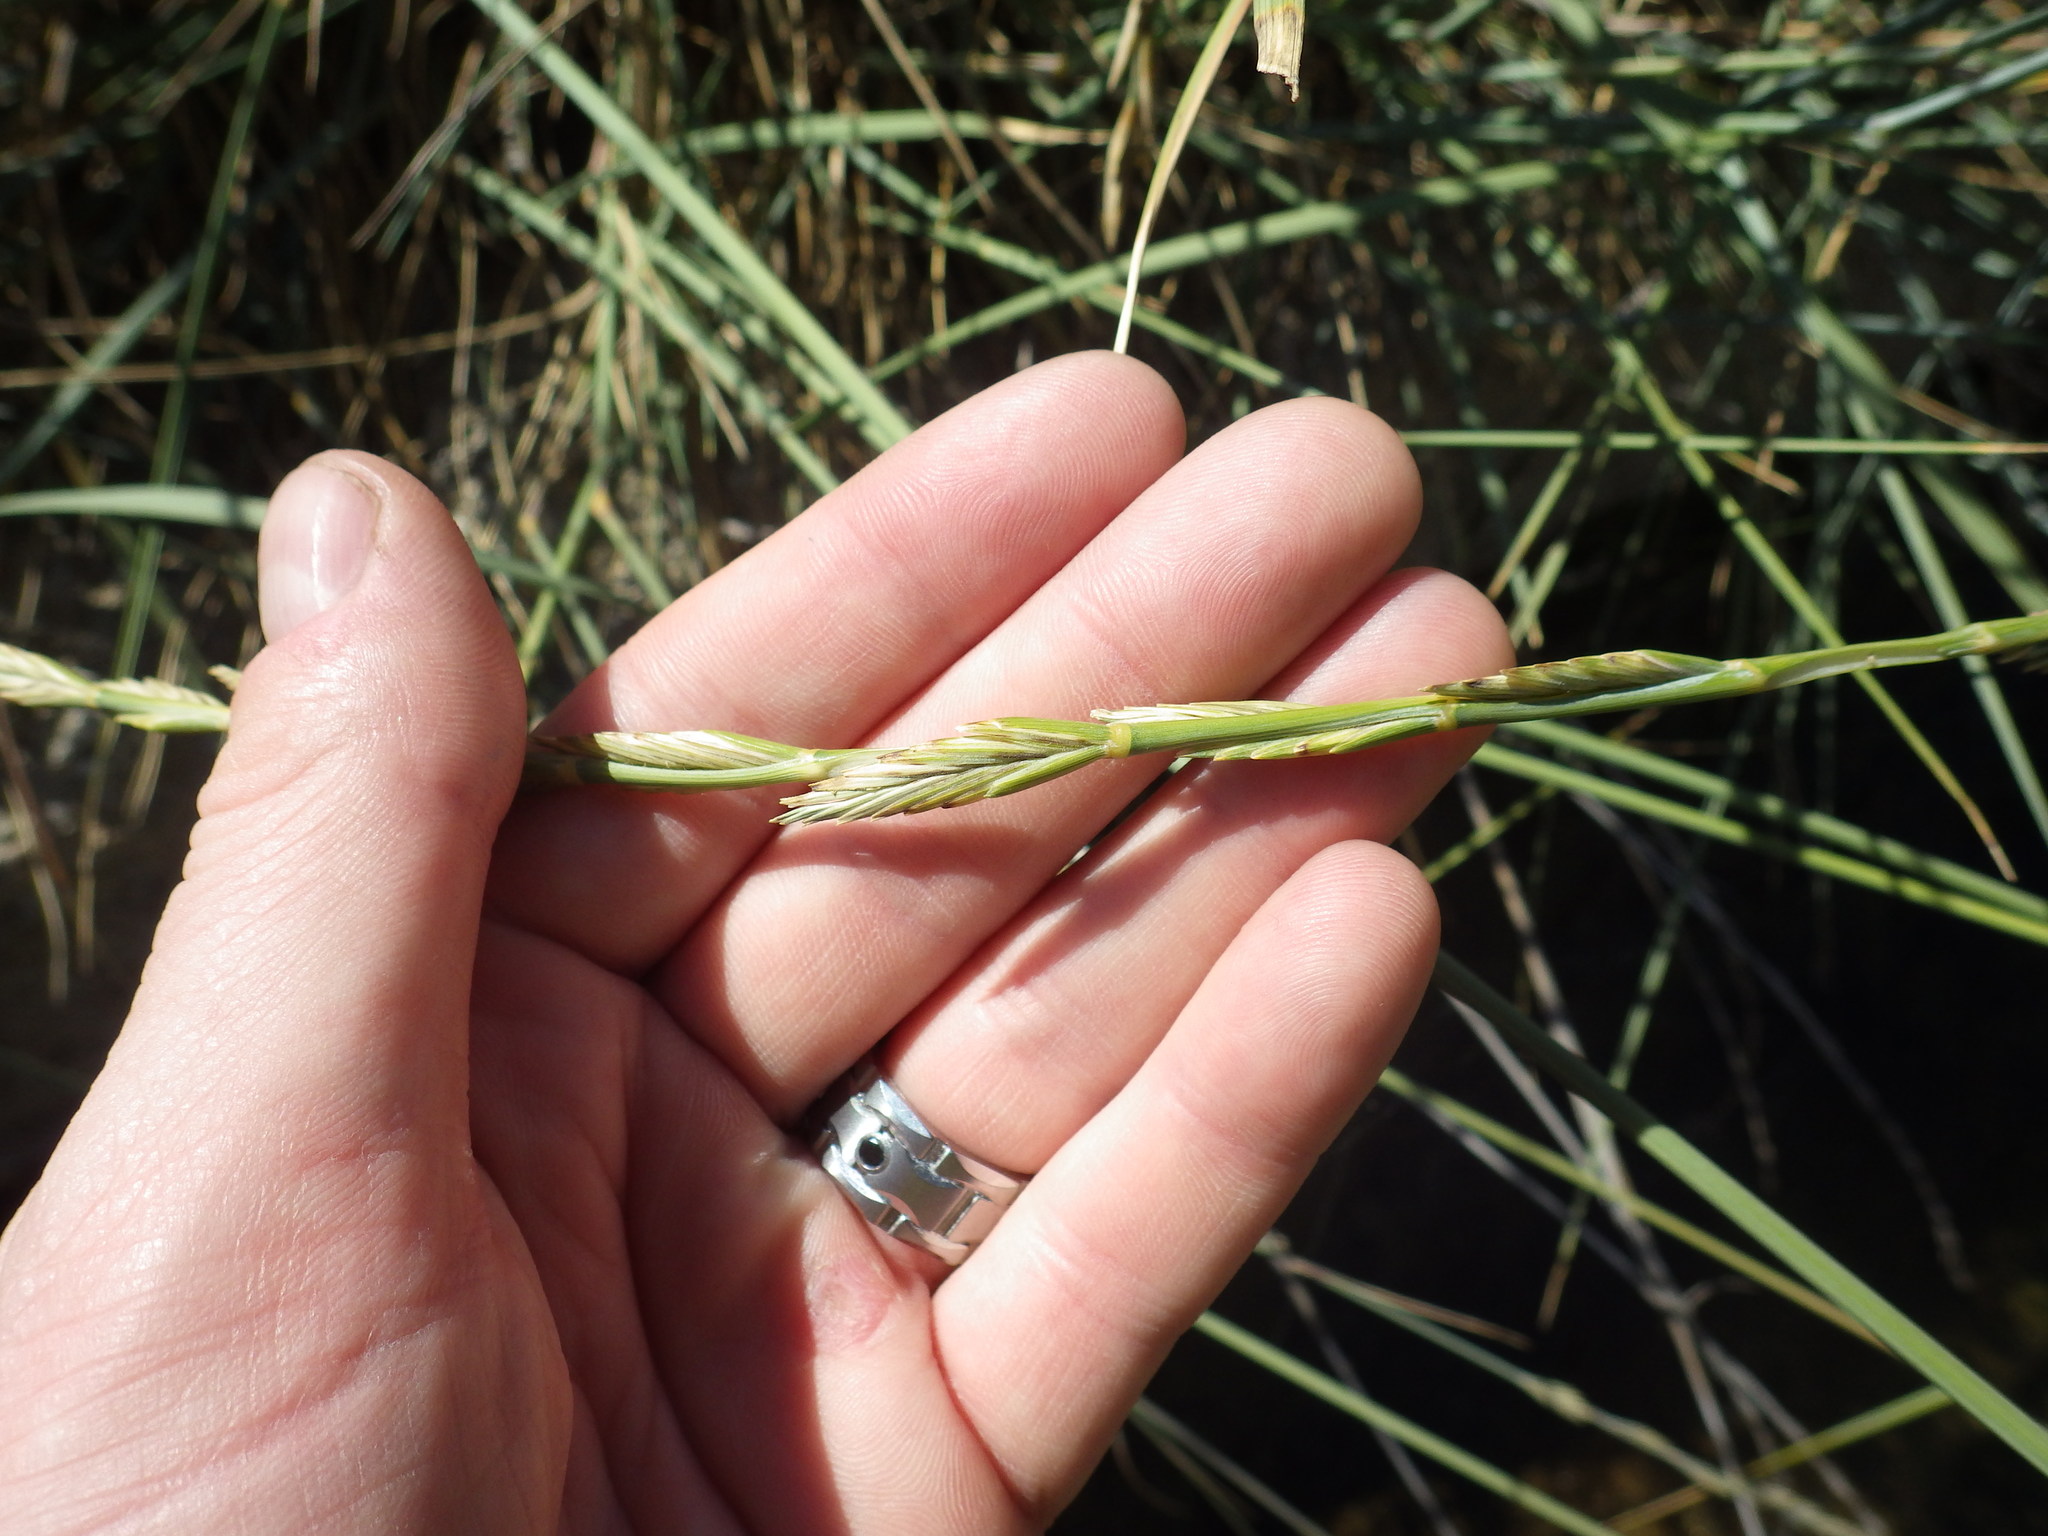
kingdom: Plantae
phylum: Tracheophyta
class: Liliopsida
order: Poales
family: Poaceae
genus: Thinopyrum
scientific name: Thinopyrum obtusiflorum
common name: Eurasian quackgrass
